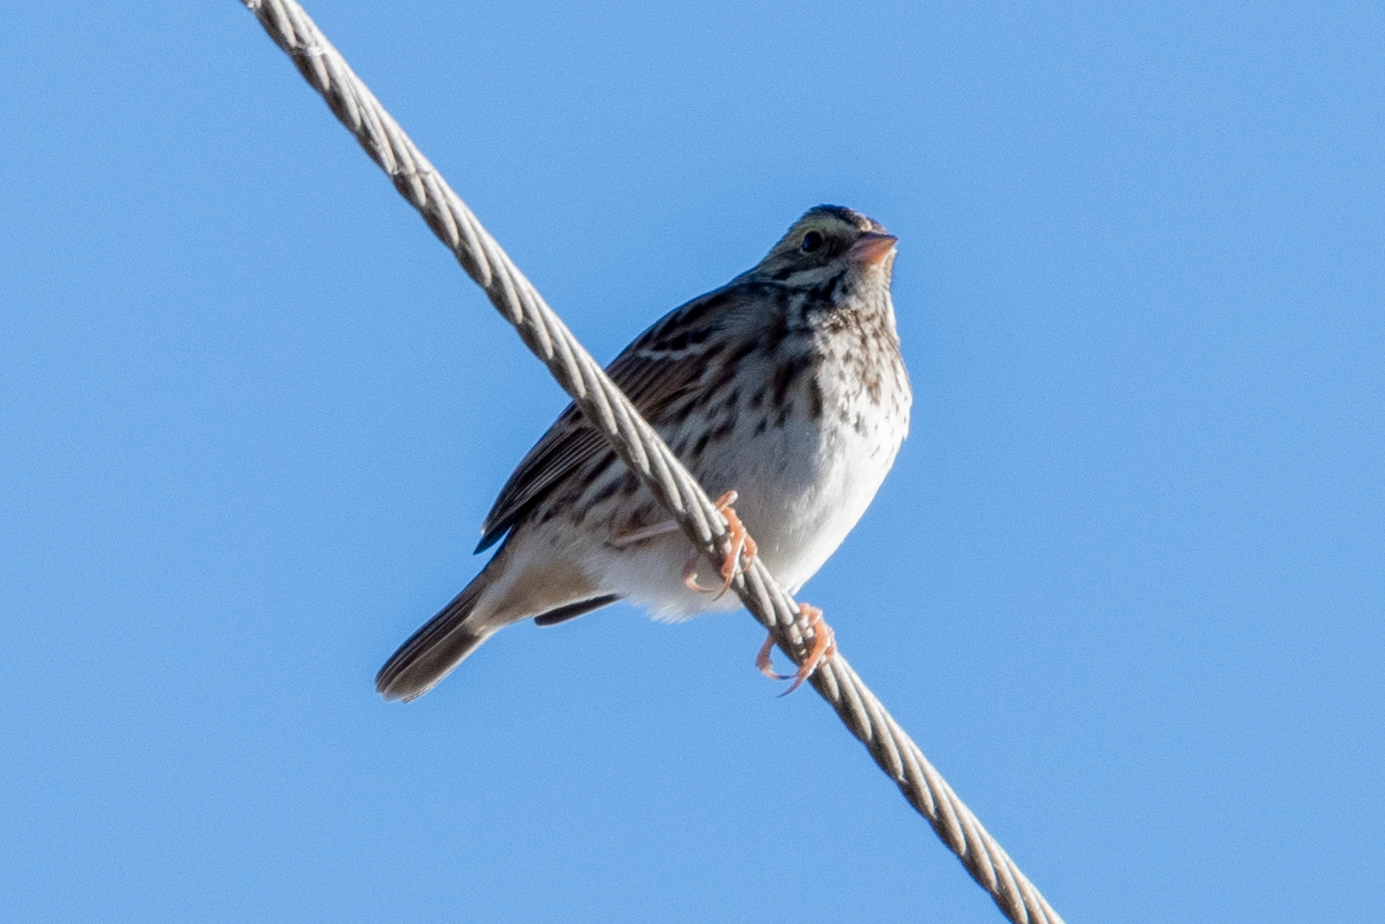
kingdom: Animalia
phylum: Chordata
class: Aves
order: Passeriformes
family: Passerellidae
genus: Passerculus
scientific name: Passerculus sandwichensis
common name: Savannah sparrow
